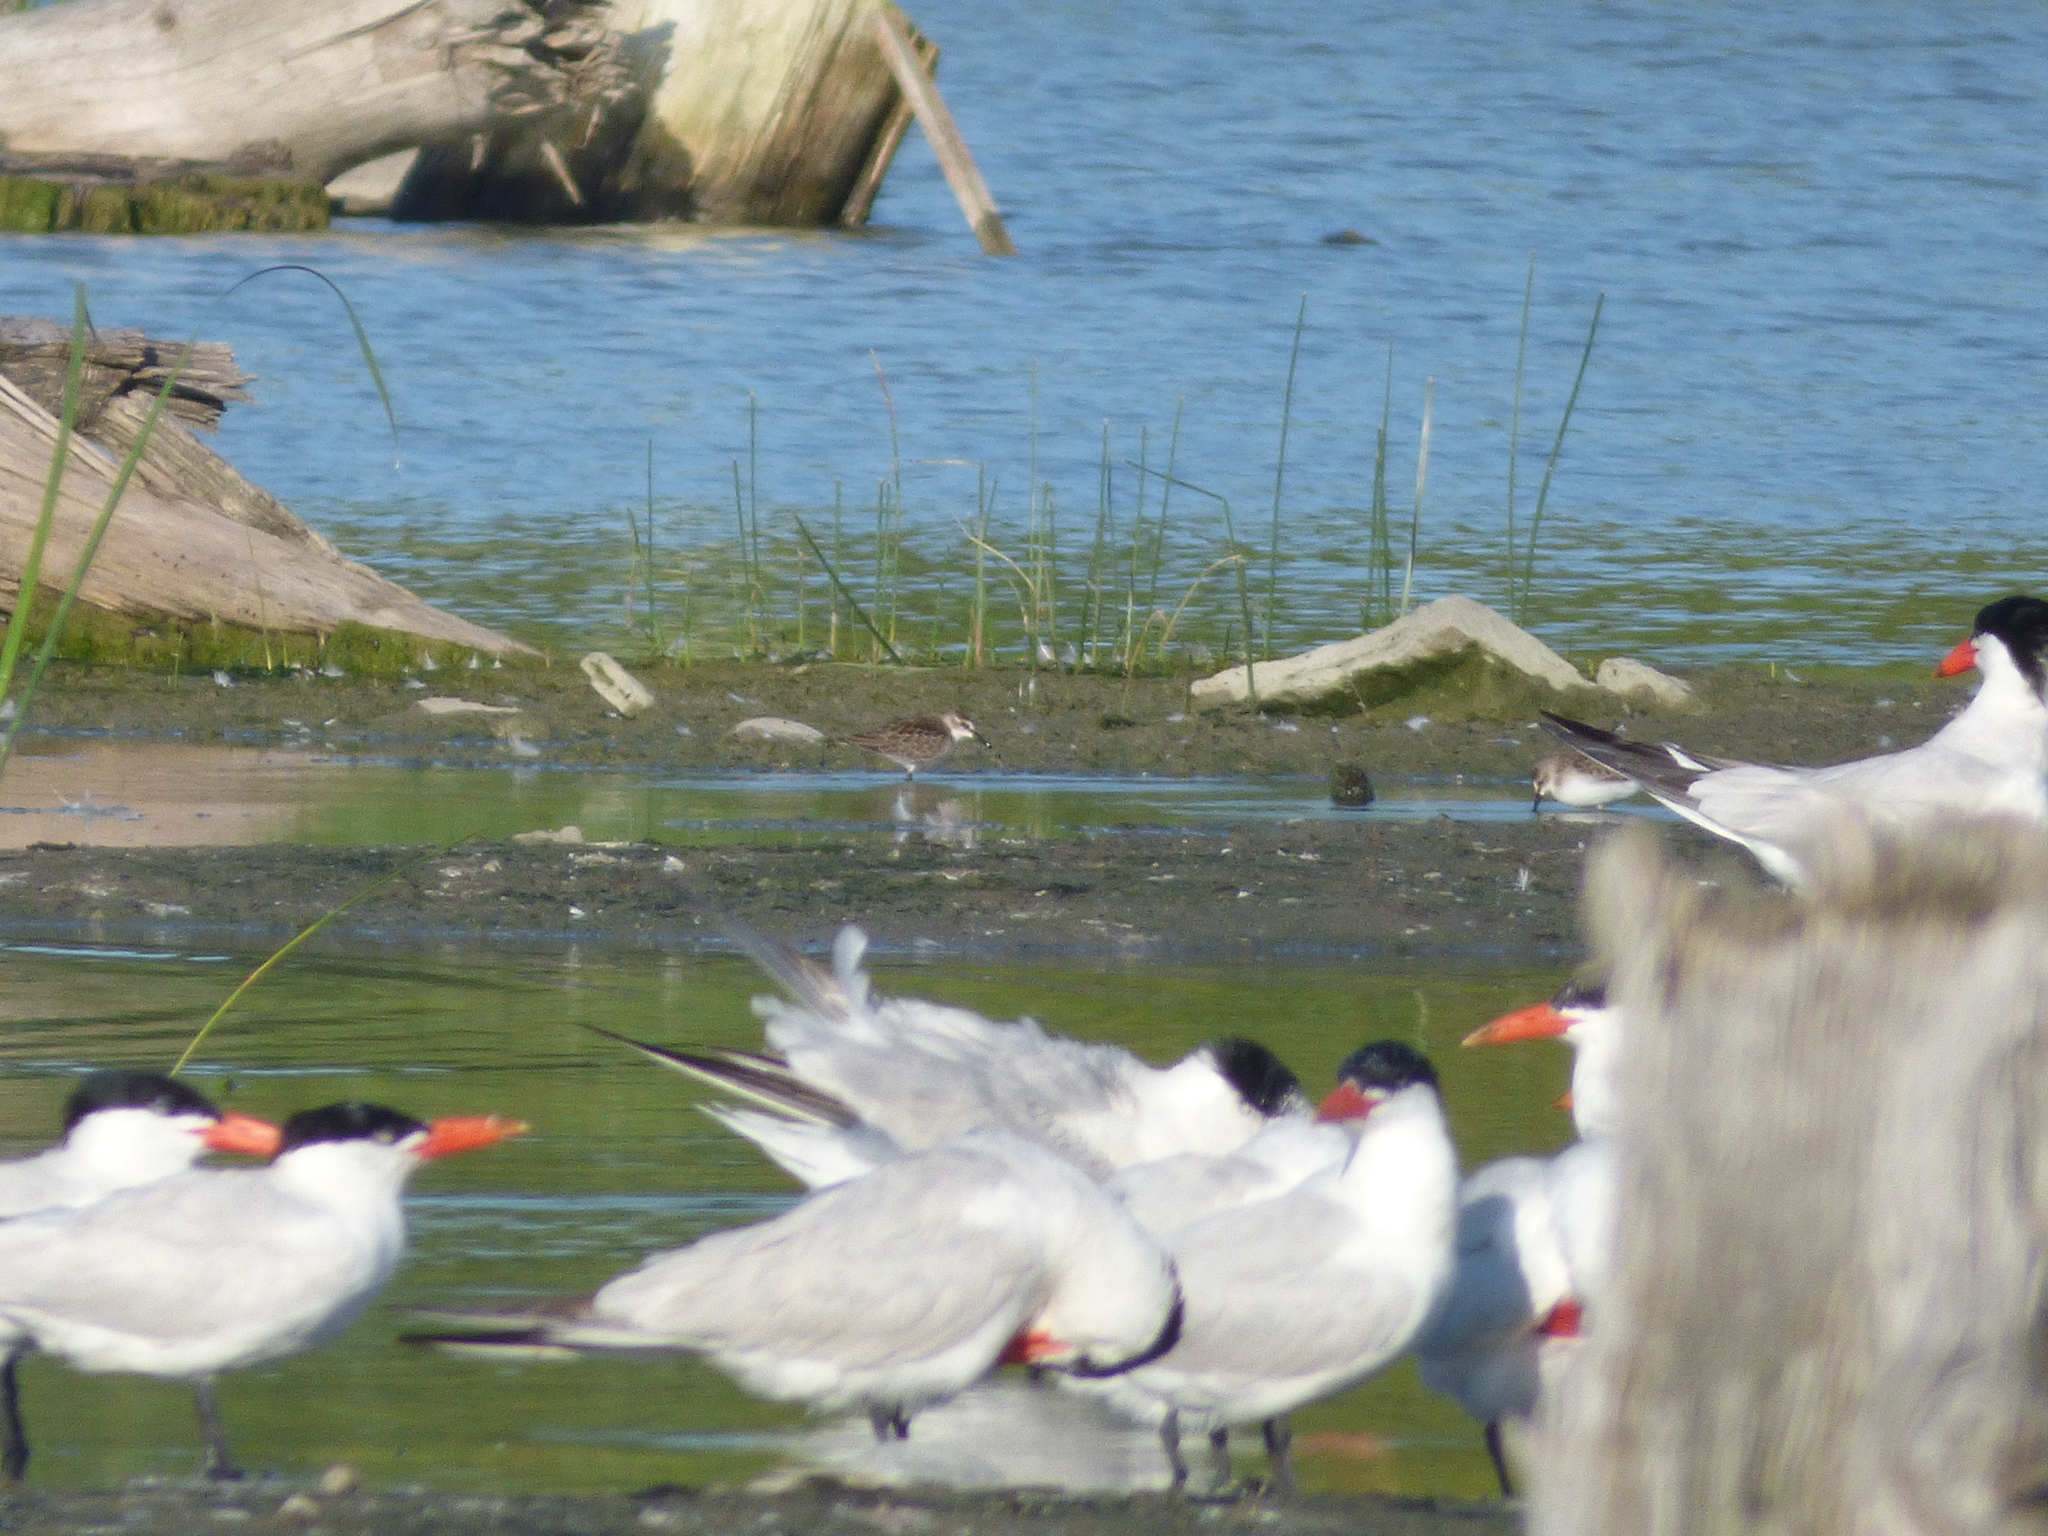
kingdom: Animalia
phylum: Chordata
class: Aves
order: Charadriiformes
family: Scolopacidae
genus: Calidris
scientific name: Calidris pusilla
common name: Semipalmated sandpiper
